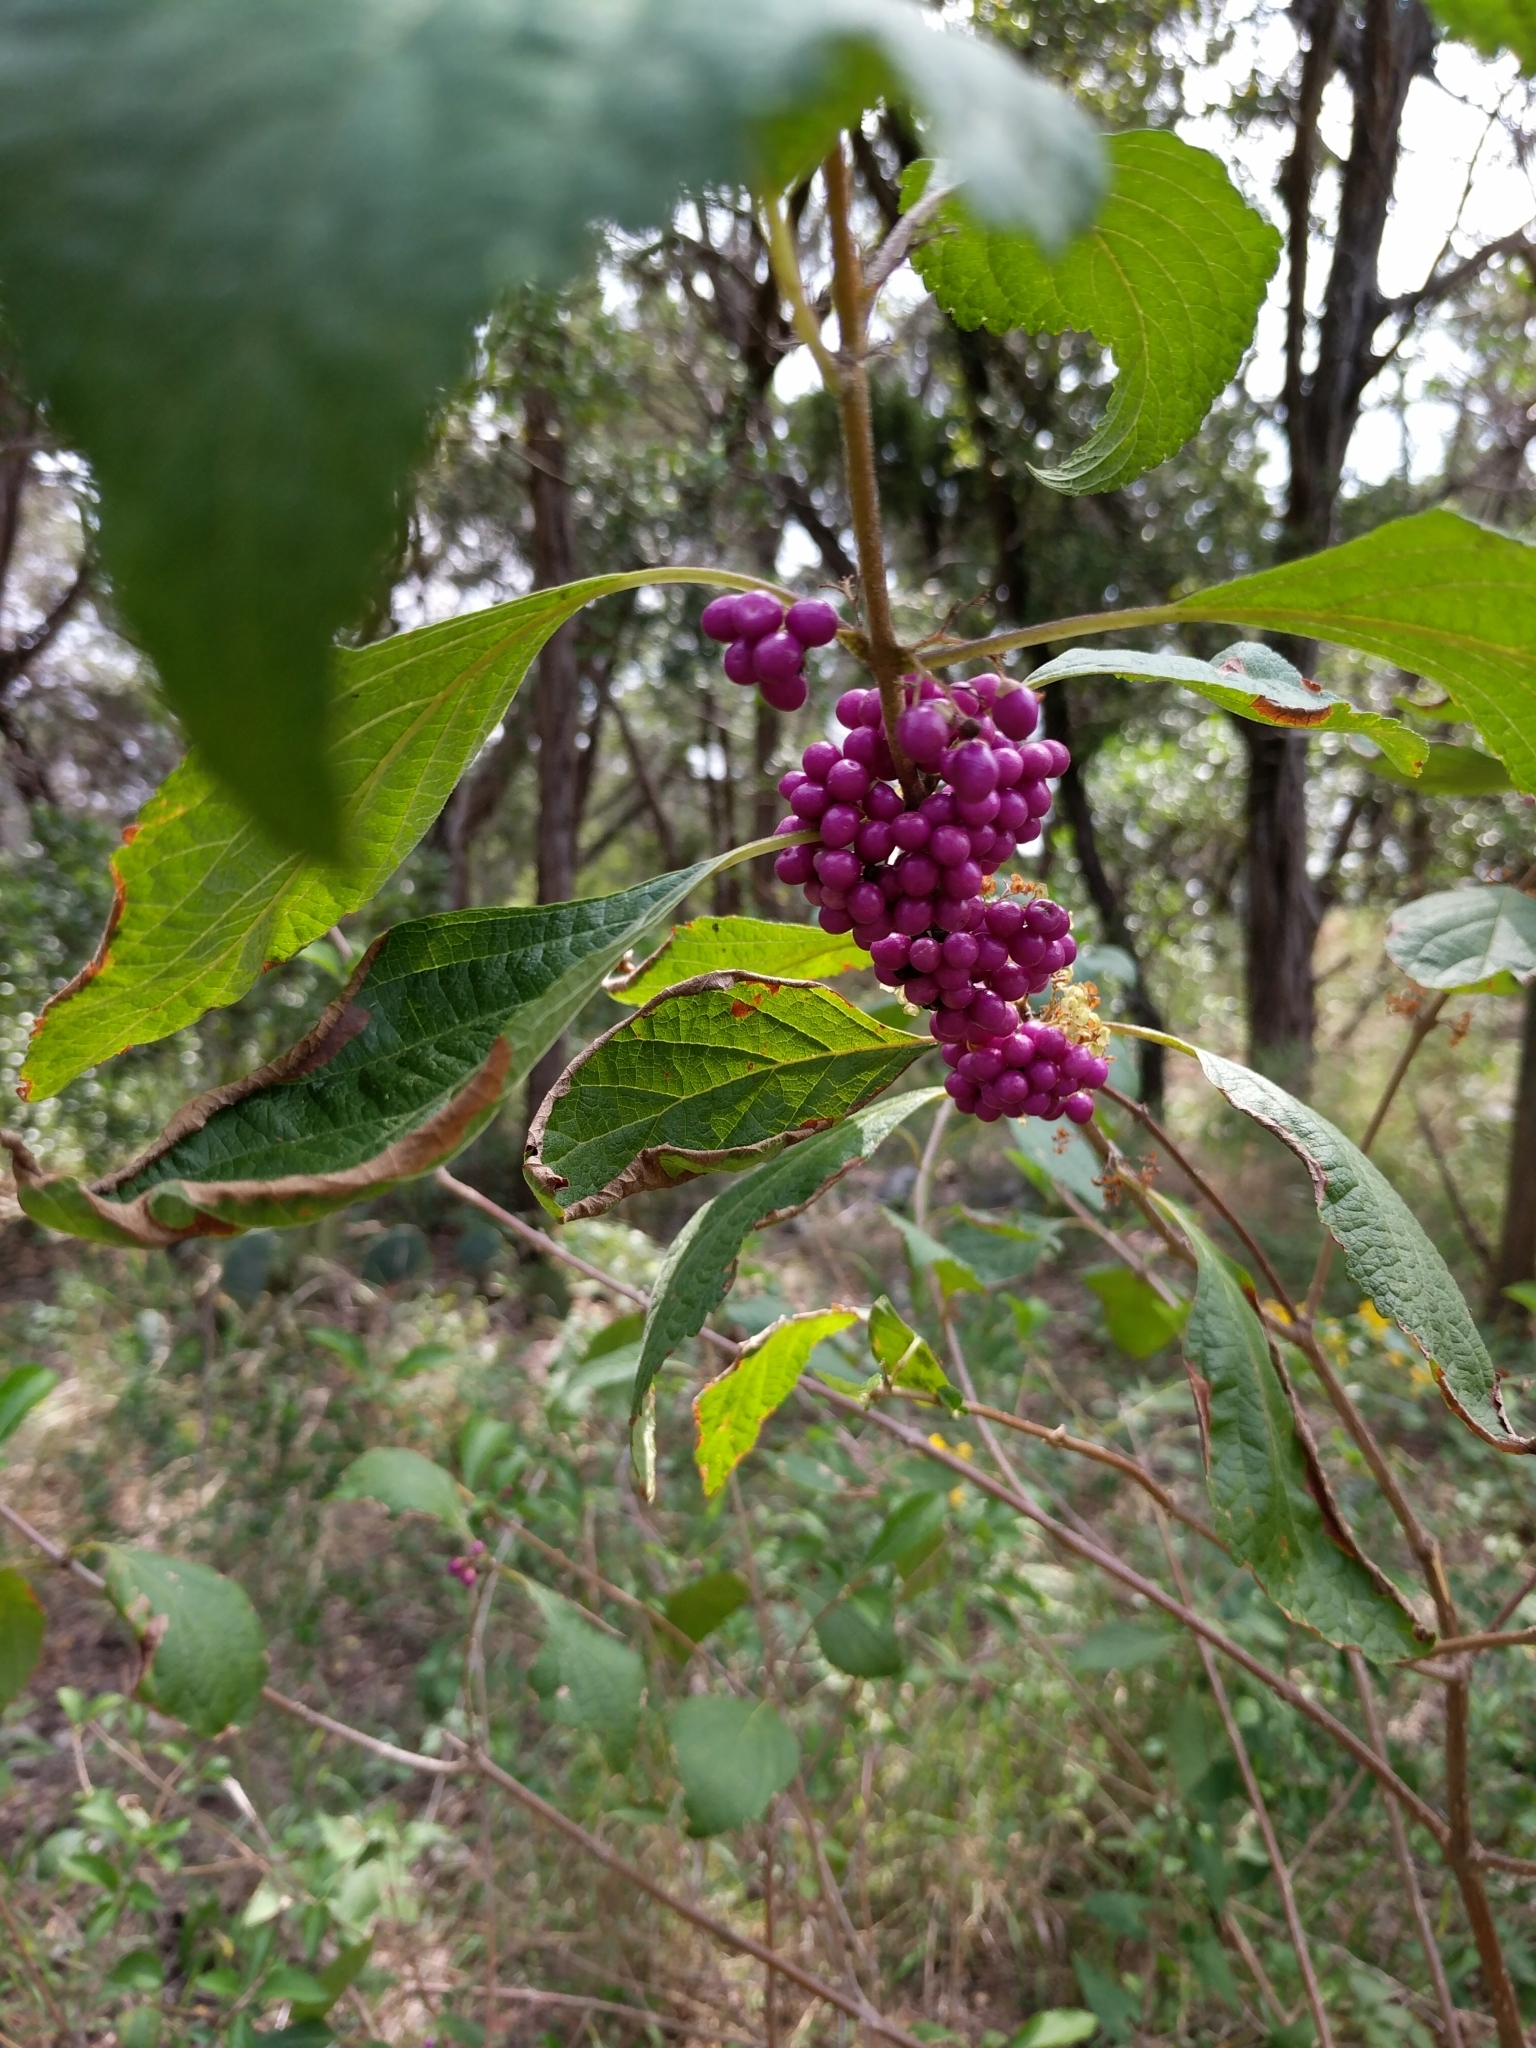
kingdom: Plantae
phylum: Tracheophyta
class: Magnoliopsida
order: Lamiales
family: Lamiaceae
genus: Callicarpa
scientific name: Callicarpa americana
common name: American beautyberry
